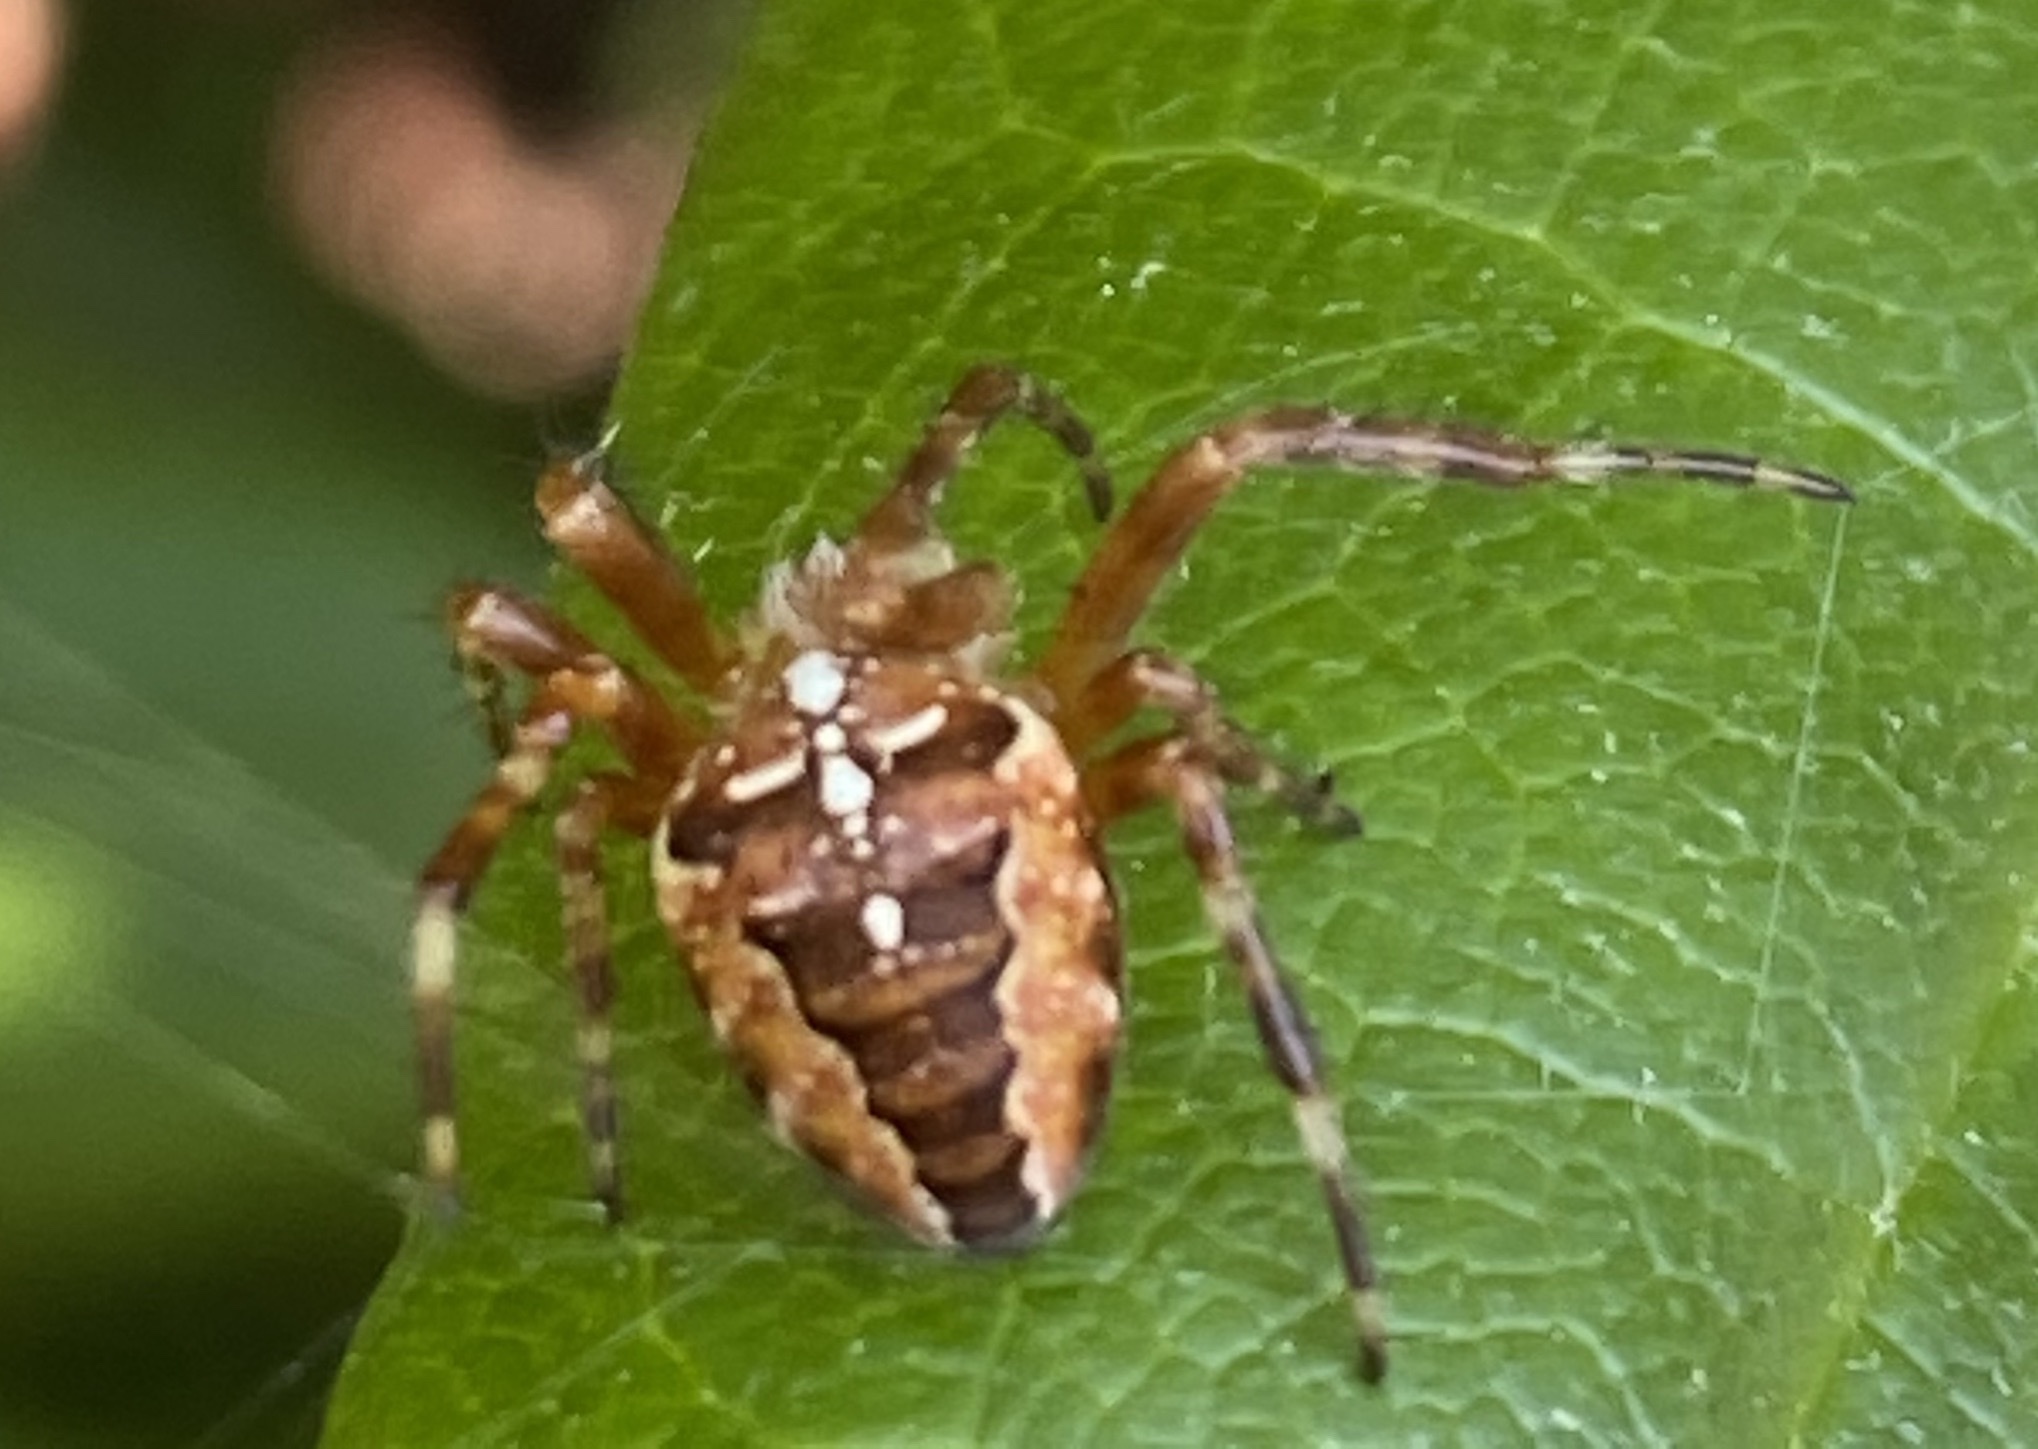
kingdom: Animalia
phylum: Arthropoda
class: Arachnida
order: Araneae
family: Araneidae
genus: Araneus
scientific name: Araneus diadematus
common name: Cross orbweaver
